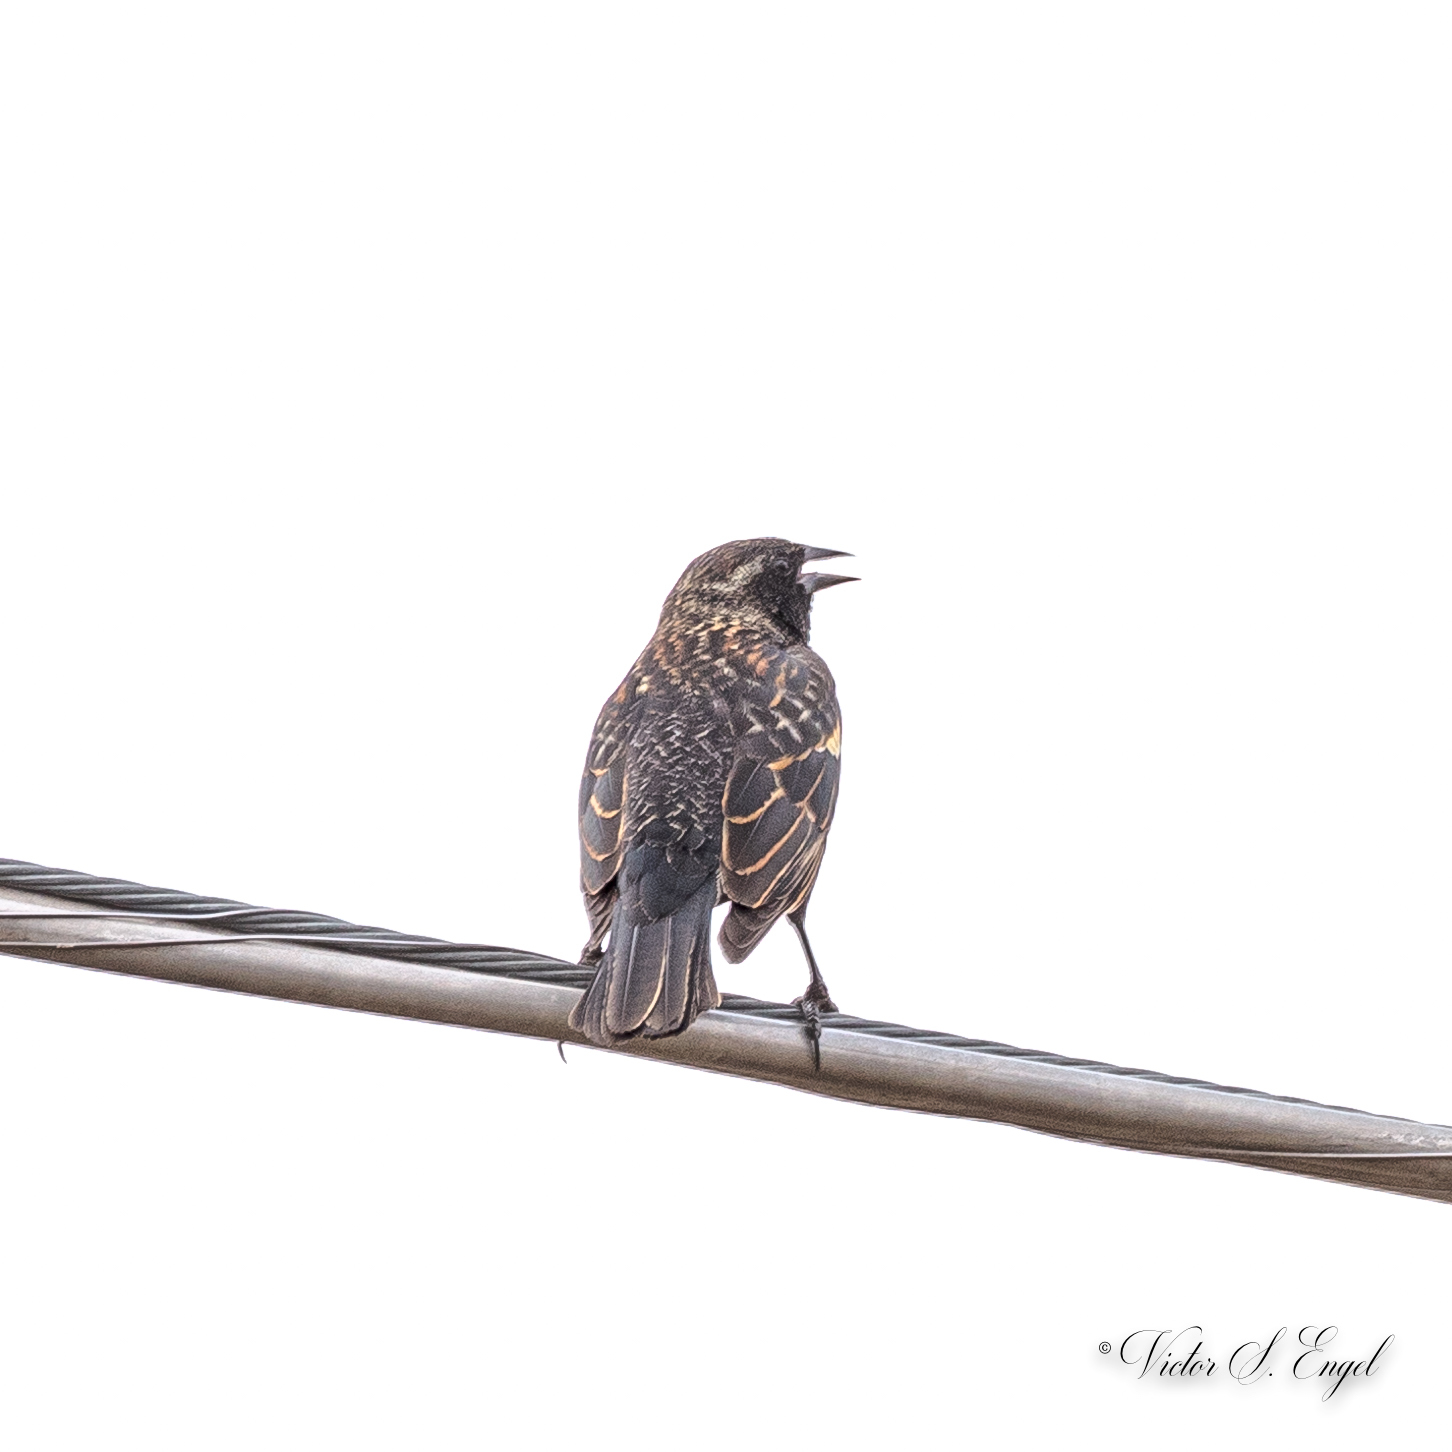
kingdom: Animalia
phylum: Chordata
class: Aves
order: Passeriformes
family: Icteridae
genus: Agelaius
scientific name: Agelaius phoeniceus
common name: Red-winged blackbird
